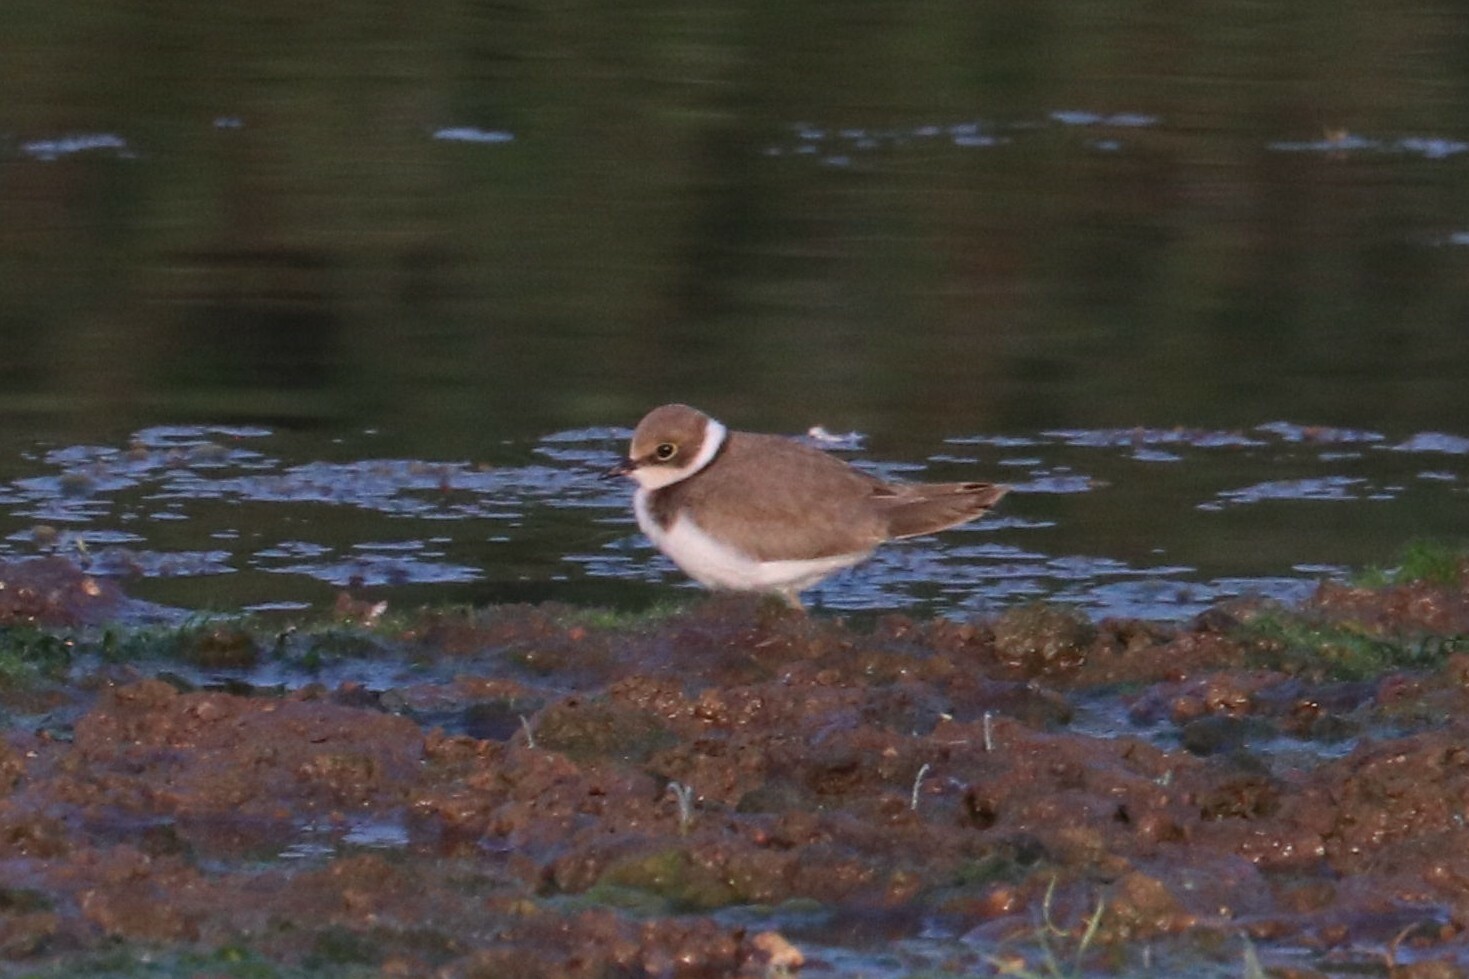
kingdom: Animalia
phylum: Chordata
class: Aves
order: Charadriiformes
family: Charadriidae
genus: Charadrius
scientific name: Charadrius dubius
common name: Little ringed plover
